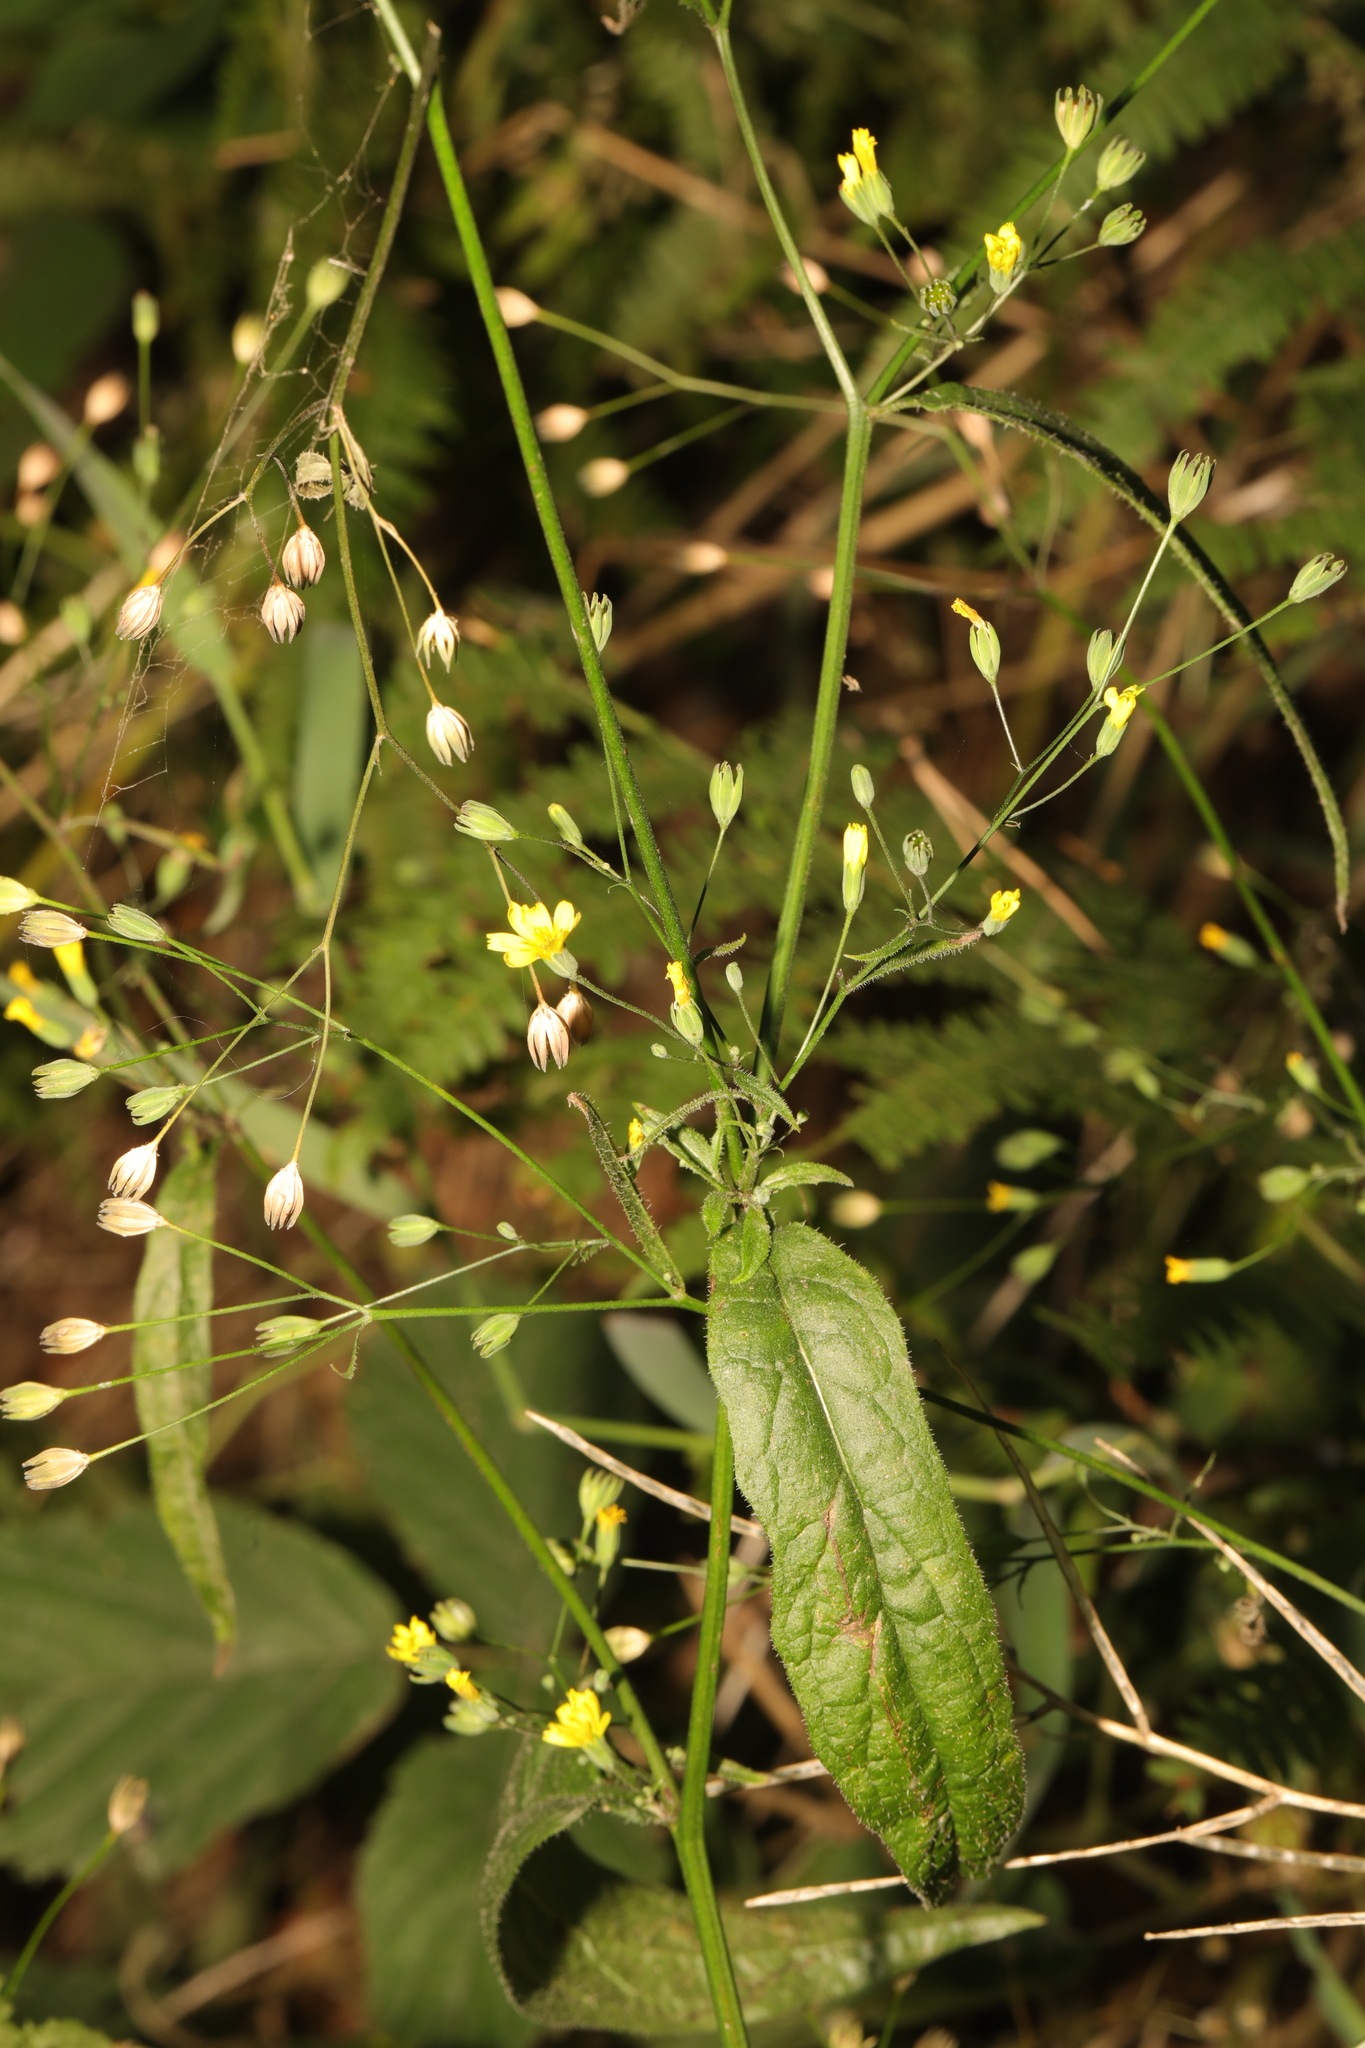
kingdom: Plantae
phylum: Tracheophyta
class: Magnoliopsida
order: Asterales
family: Asteraceae
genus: Lapsana
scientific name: Lapsana communis
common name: Nipplewort
